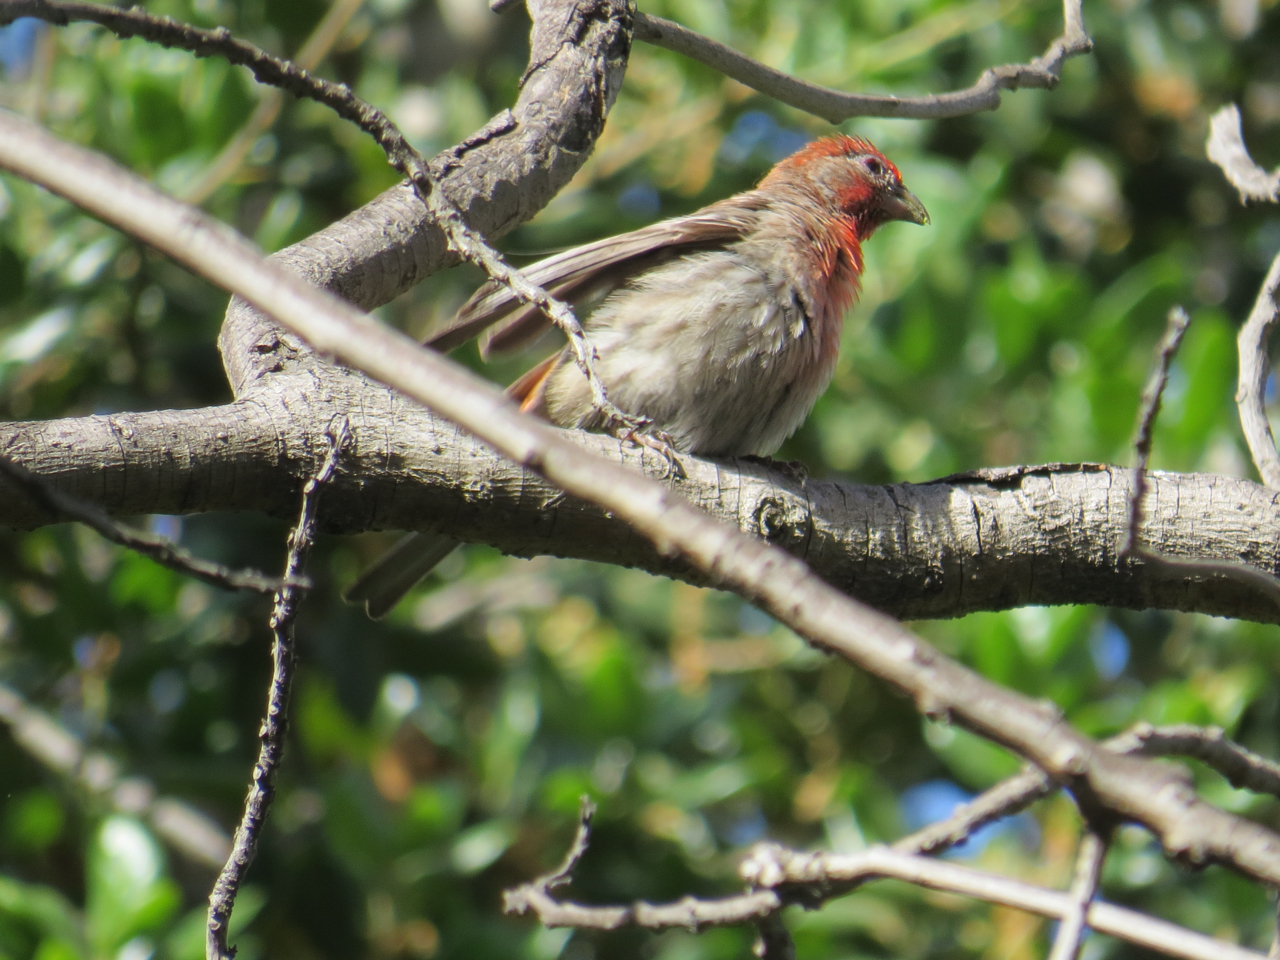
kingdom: Animalia
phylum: Chordata
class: Aves
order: Passeriformes
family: Fringillidae
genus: Haemorhous
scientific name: Haemorhous mexicanus
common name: House finch
